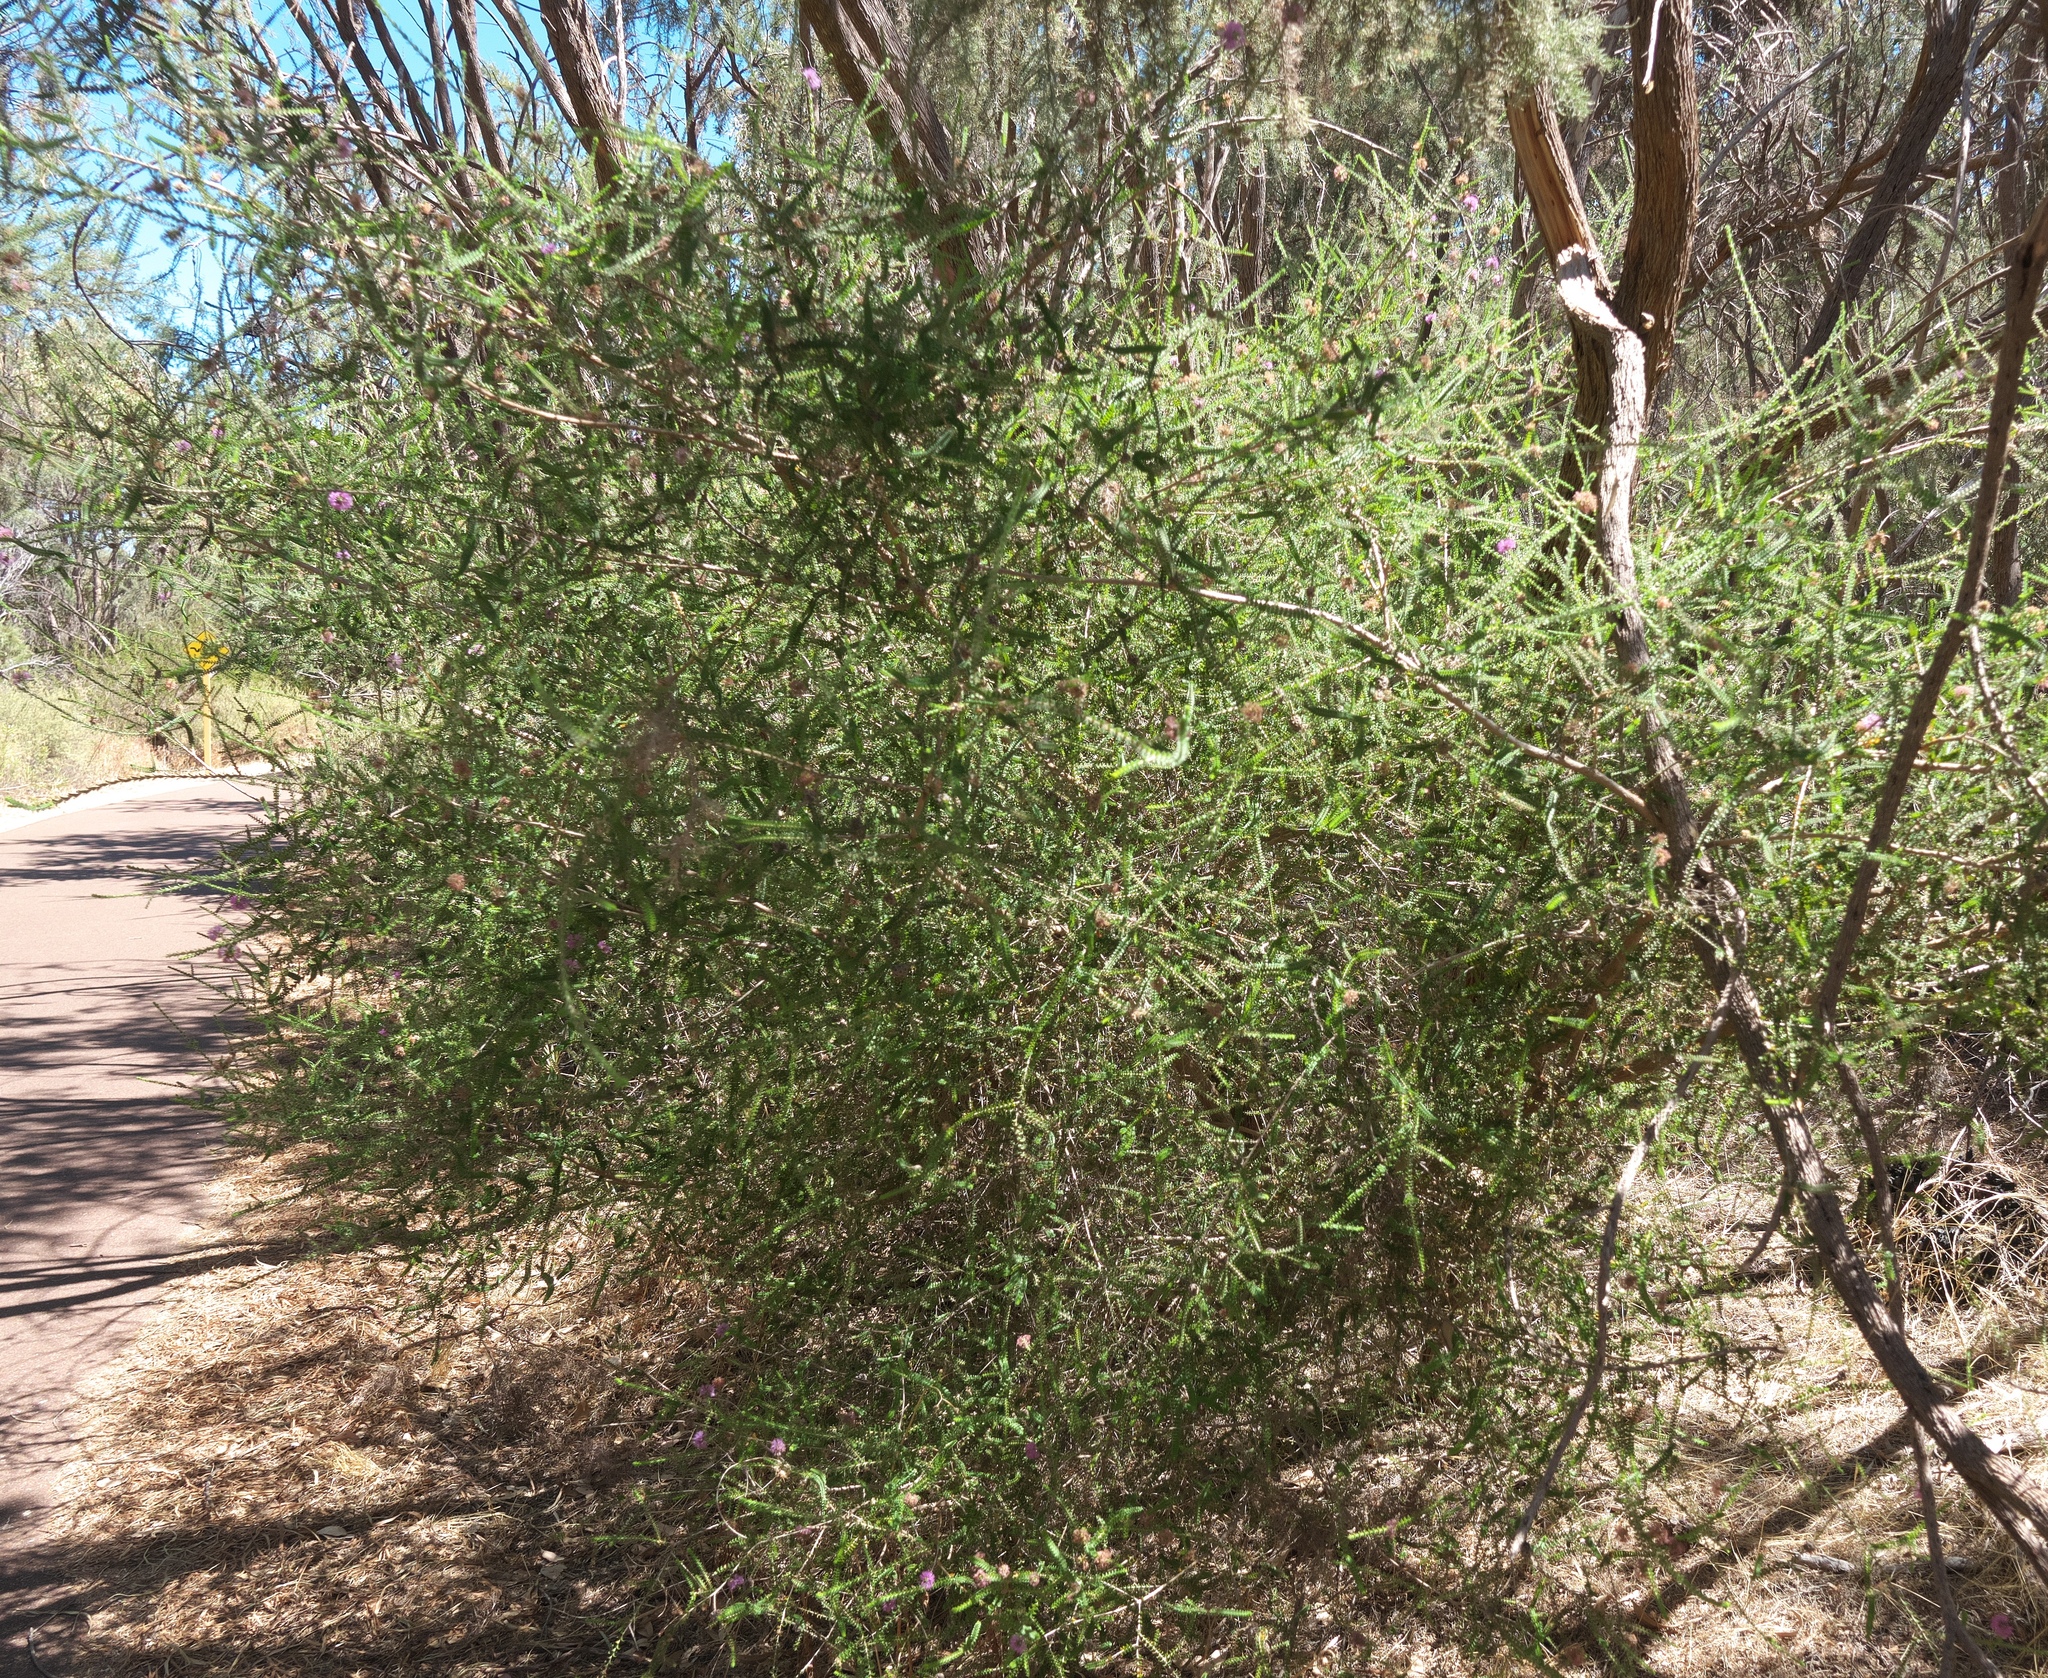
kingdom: Plantae
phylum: Tracheophyta
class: Magnoliopsida
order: Myrtales
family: Myrtaceae
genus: Melaleuca
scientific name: Melaleuca nesophila
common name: Mauve honey myrtle
